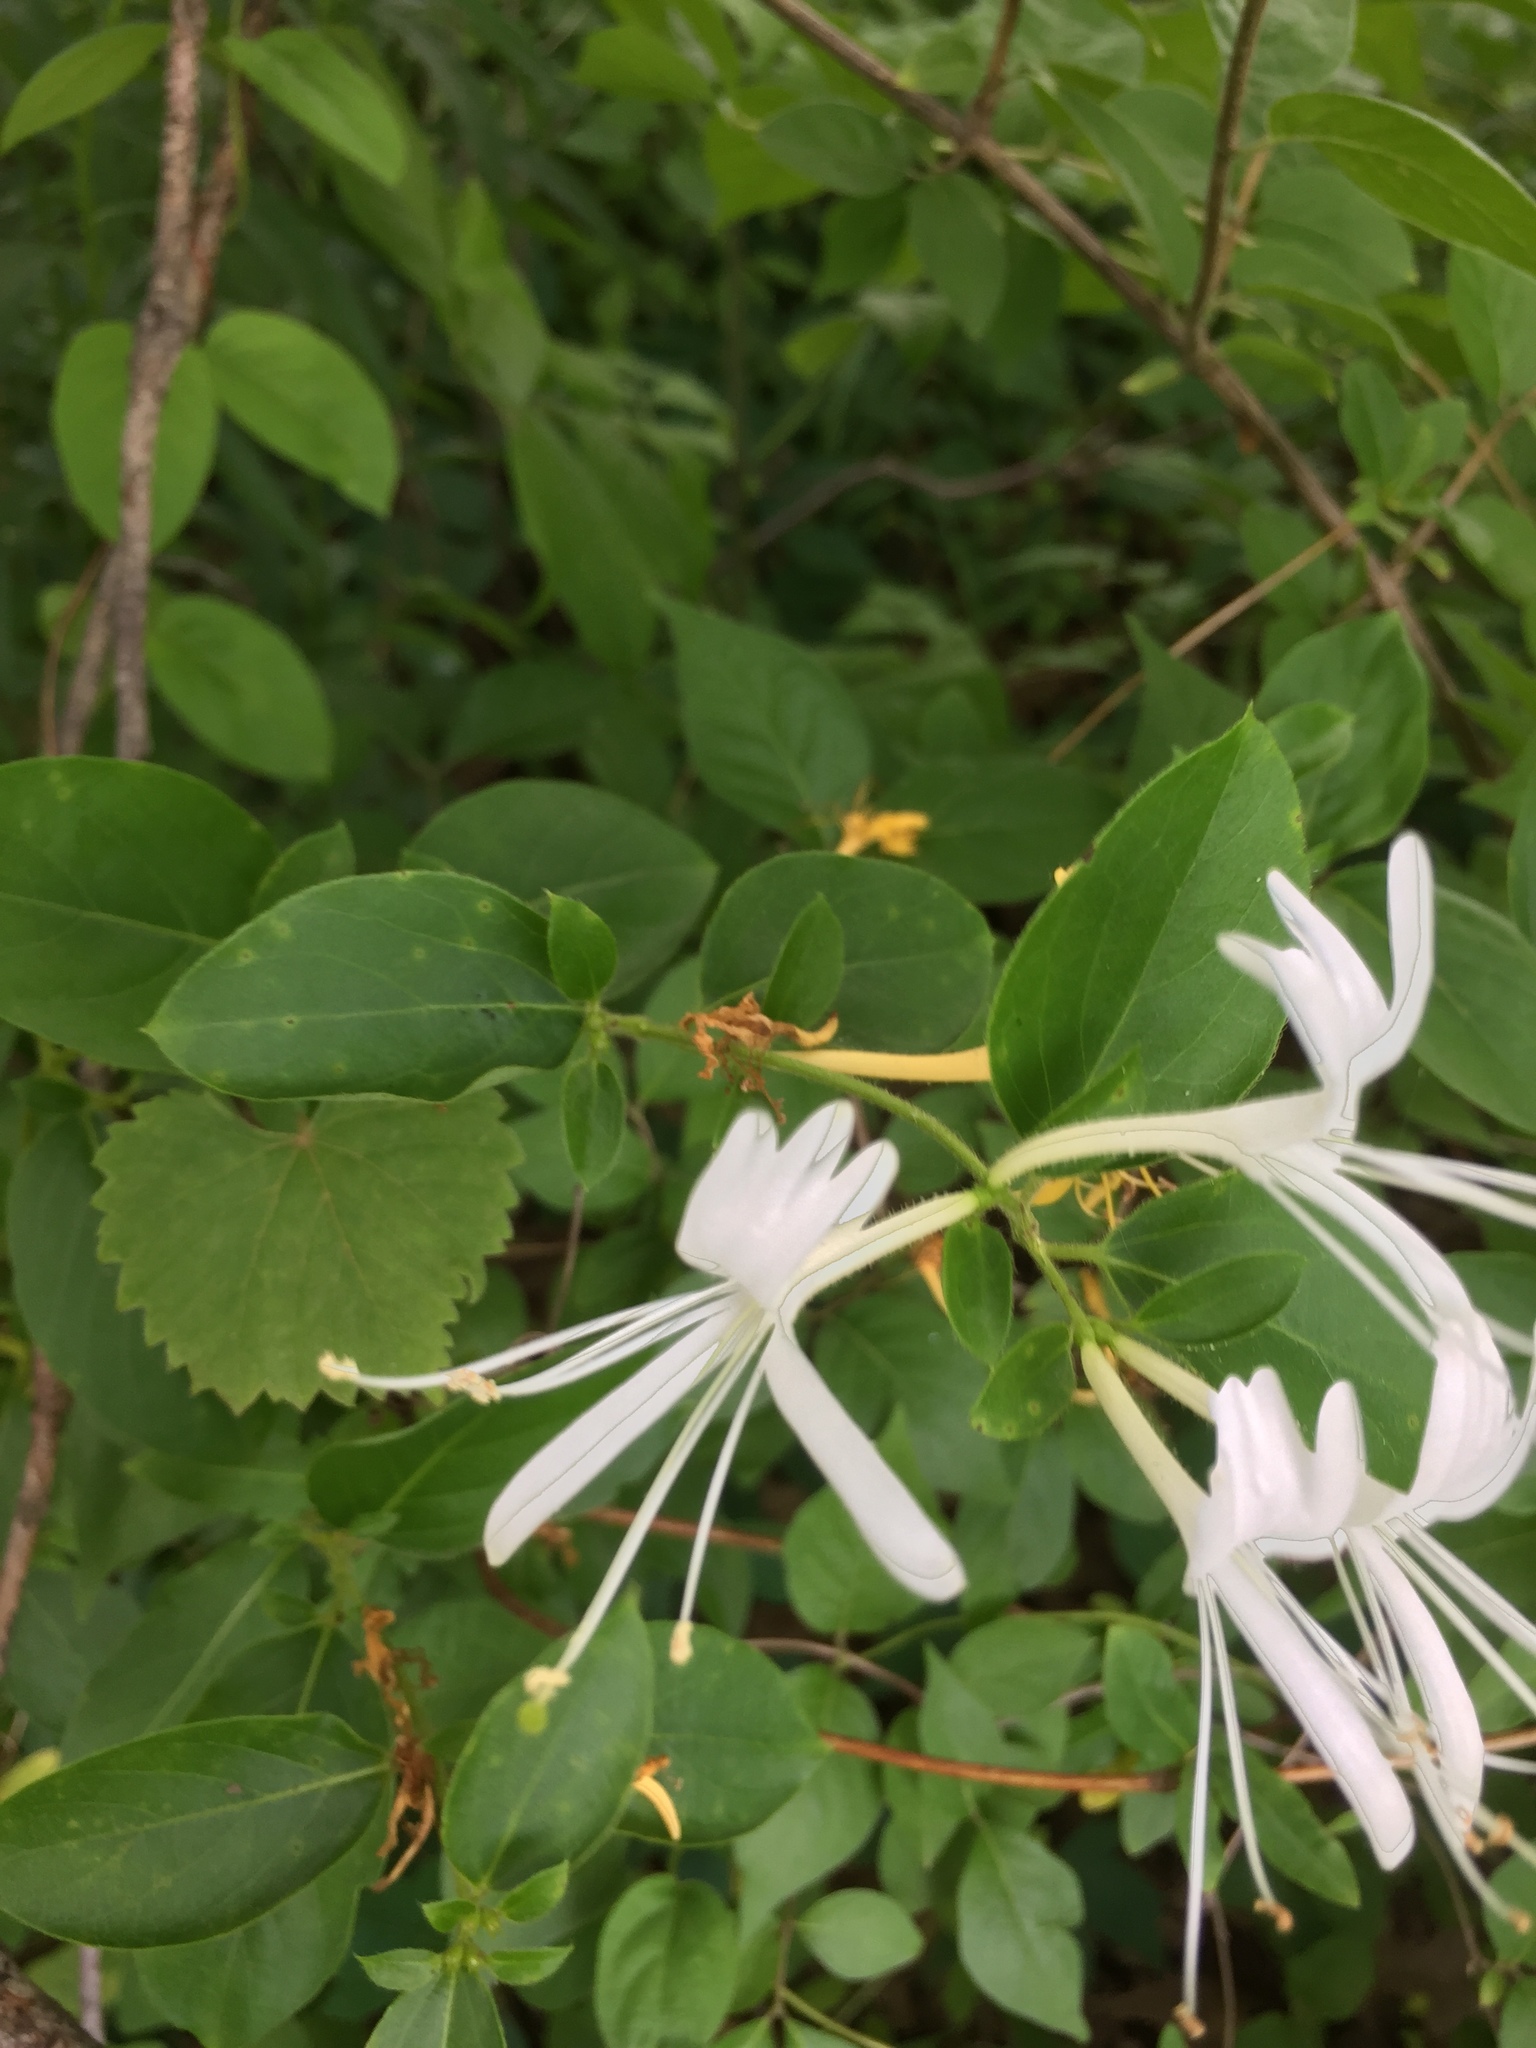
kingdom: Plantae
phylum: Tracheophyta
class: Magnoliopsida
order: Dipsacales
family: Caprifoliaceae
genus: Lonicera
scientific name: Lonicera japonica
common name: Japanese honeysuckle
